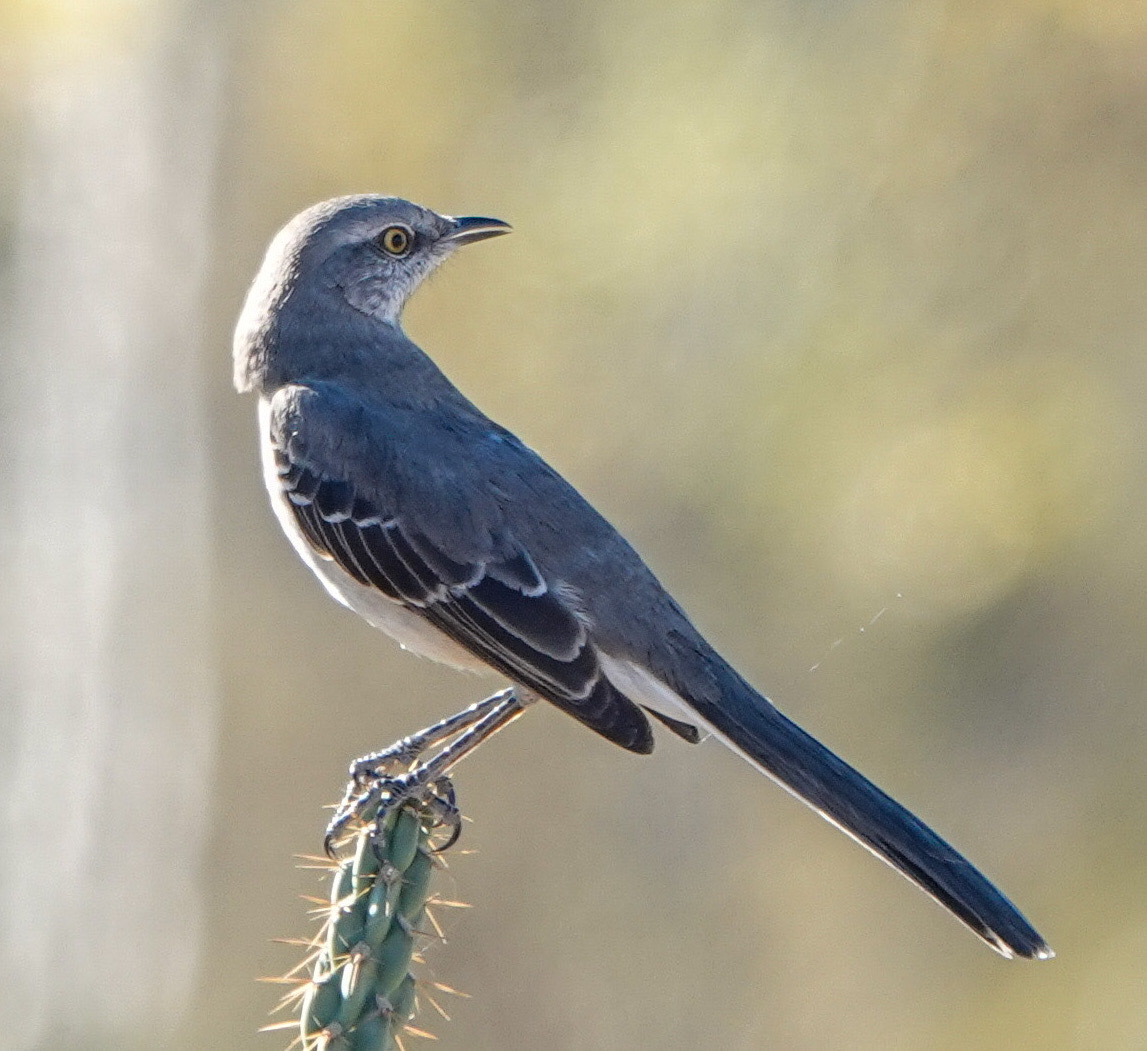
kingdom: Animalia
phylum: Chordata
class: Aves
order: Passeriformes
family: Mimidae
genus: Mimus
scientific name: Mimus polyglottos
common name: Northern mockingbird
